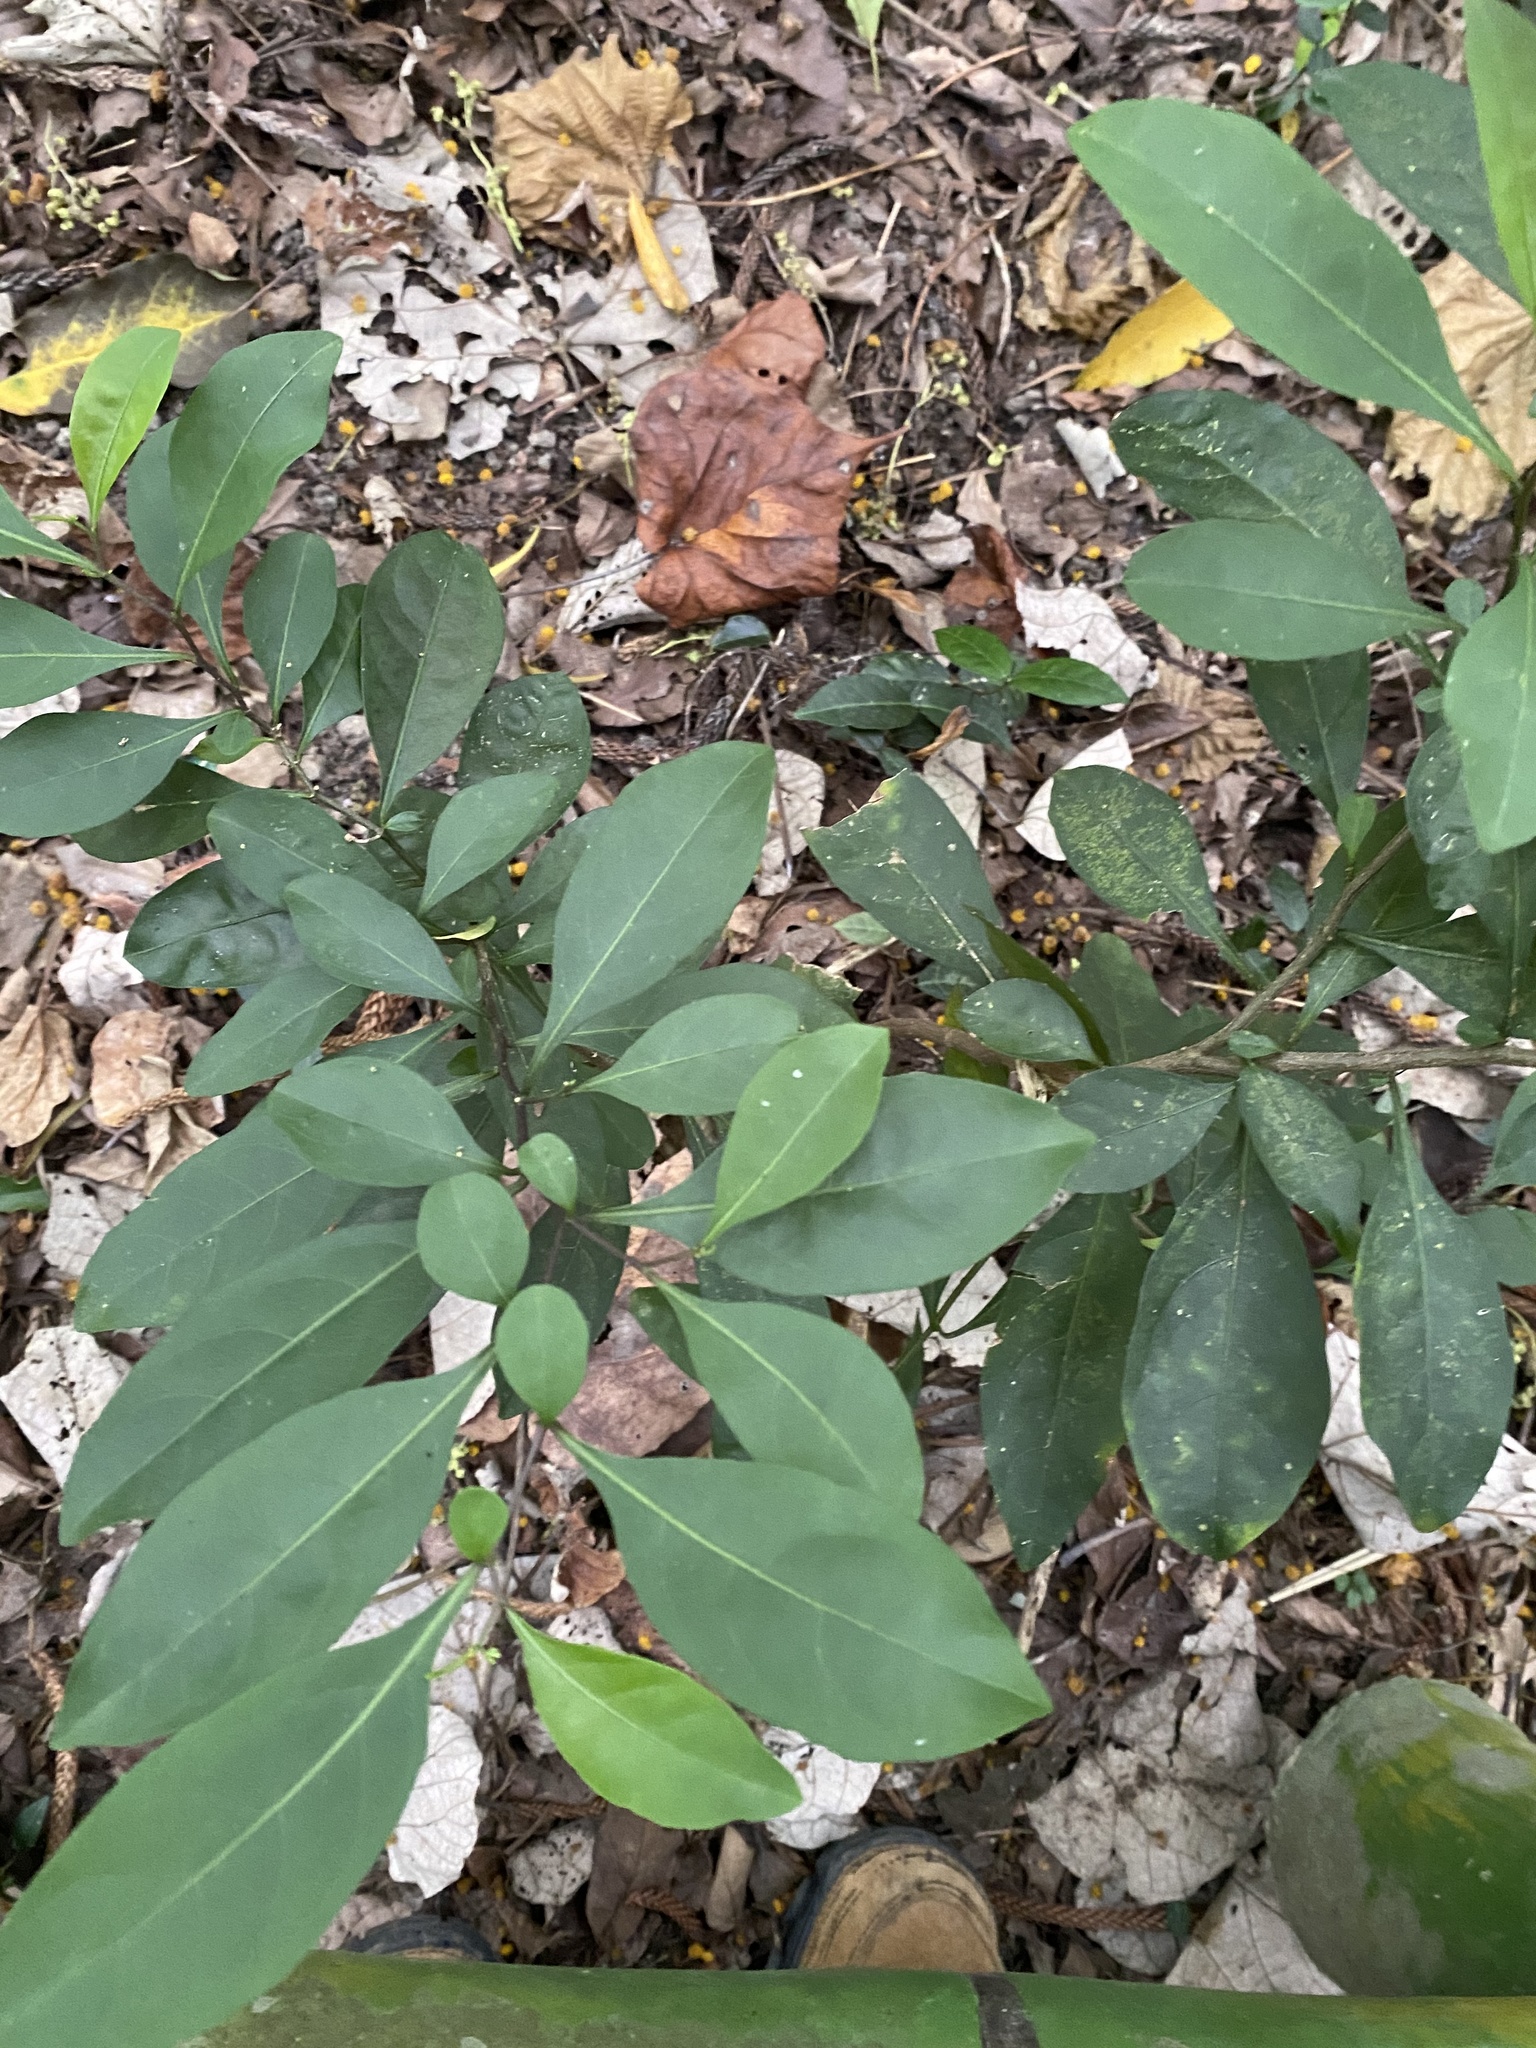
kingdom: Plantae
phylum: Tracheophyta
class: Magnoliopsida
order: Solanales
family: Solanaceae
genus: Solanum
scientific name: Solanum diphyllum
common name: Twoleaf nightshade
